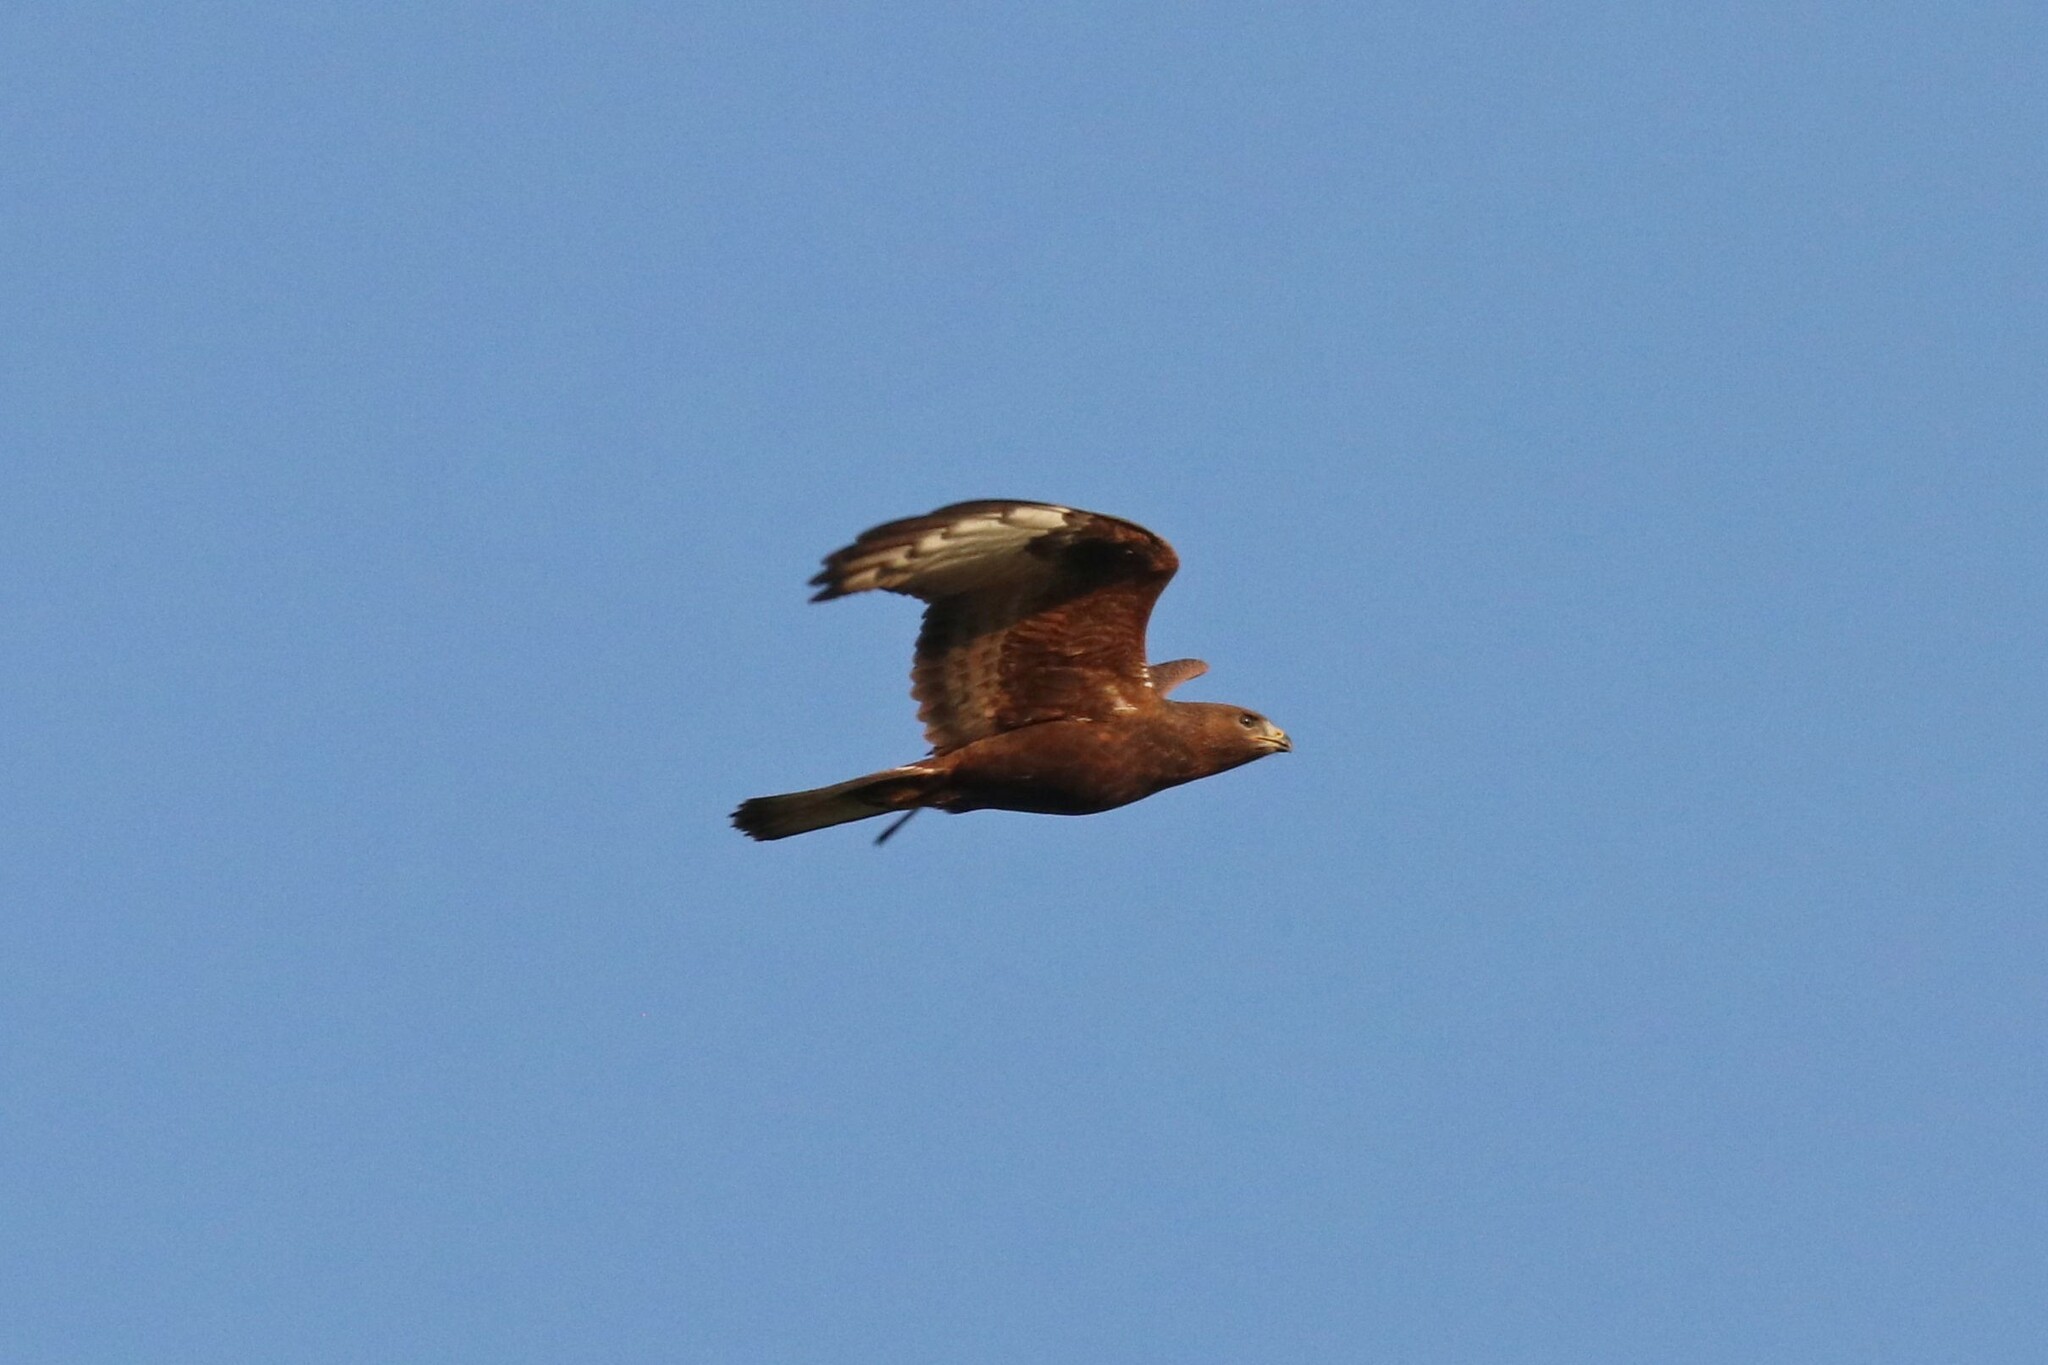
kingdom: Animalia
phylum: Chordata
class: Aves
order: Accipitriformes
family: Accipitridae
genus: Buteo
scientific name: Buteo buteo
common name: Common buzzard
